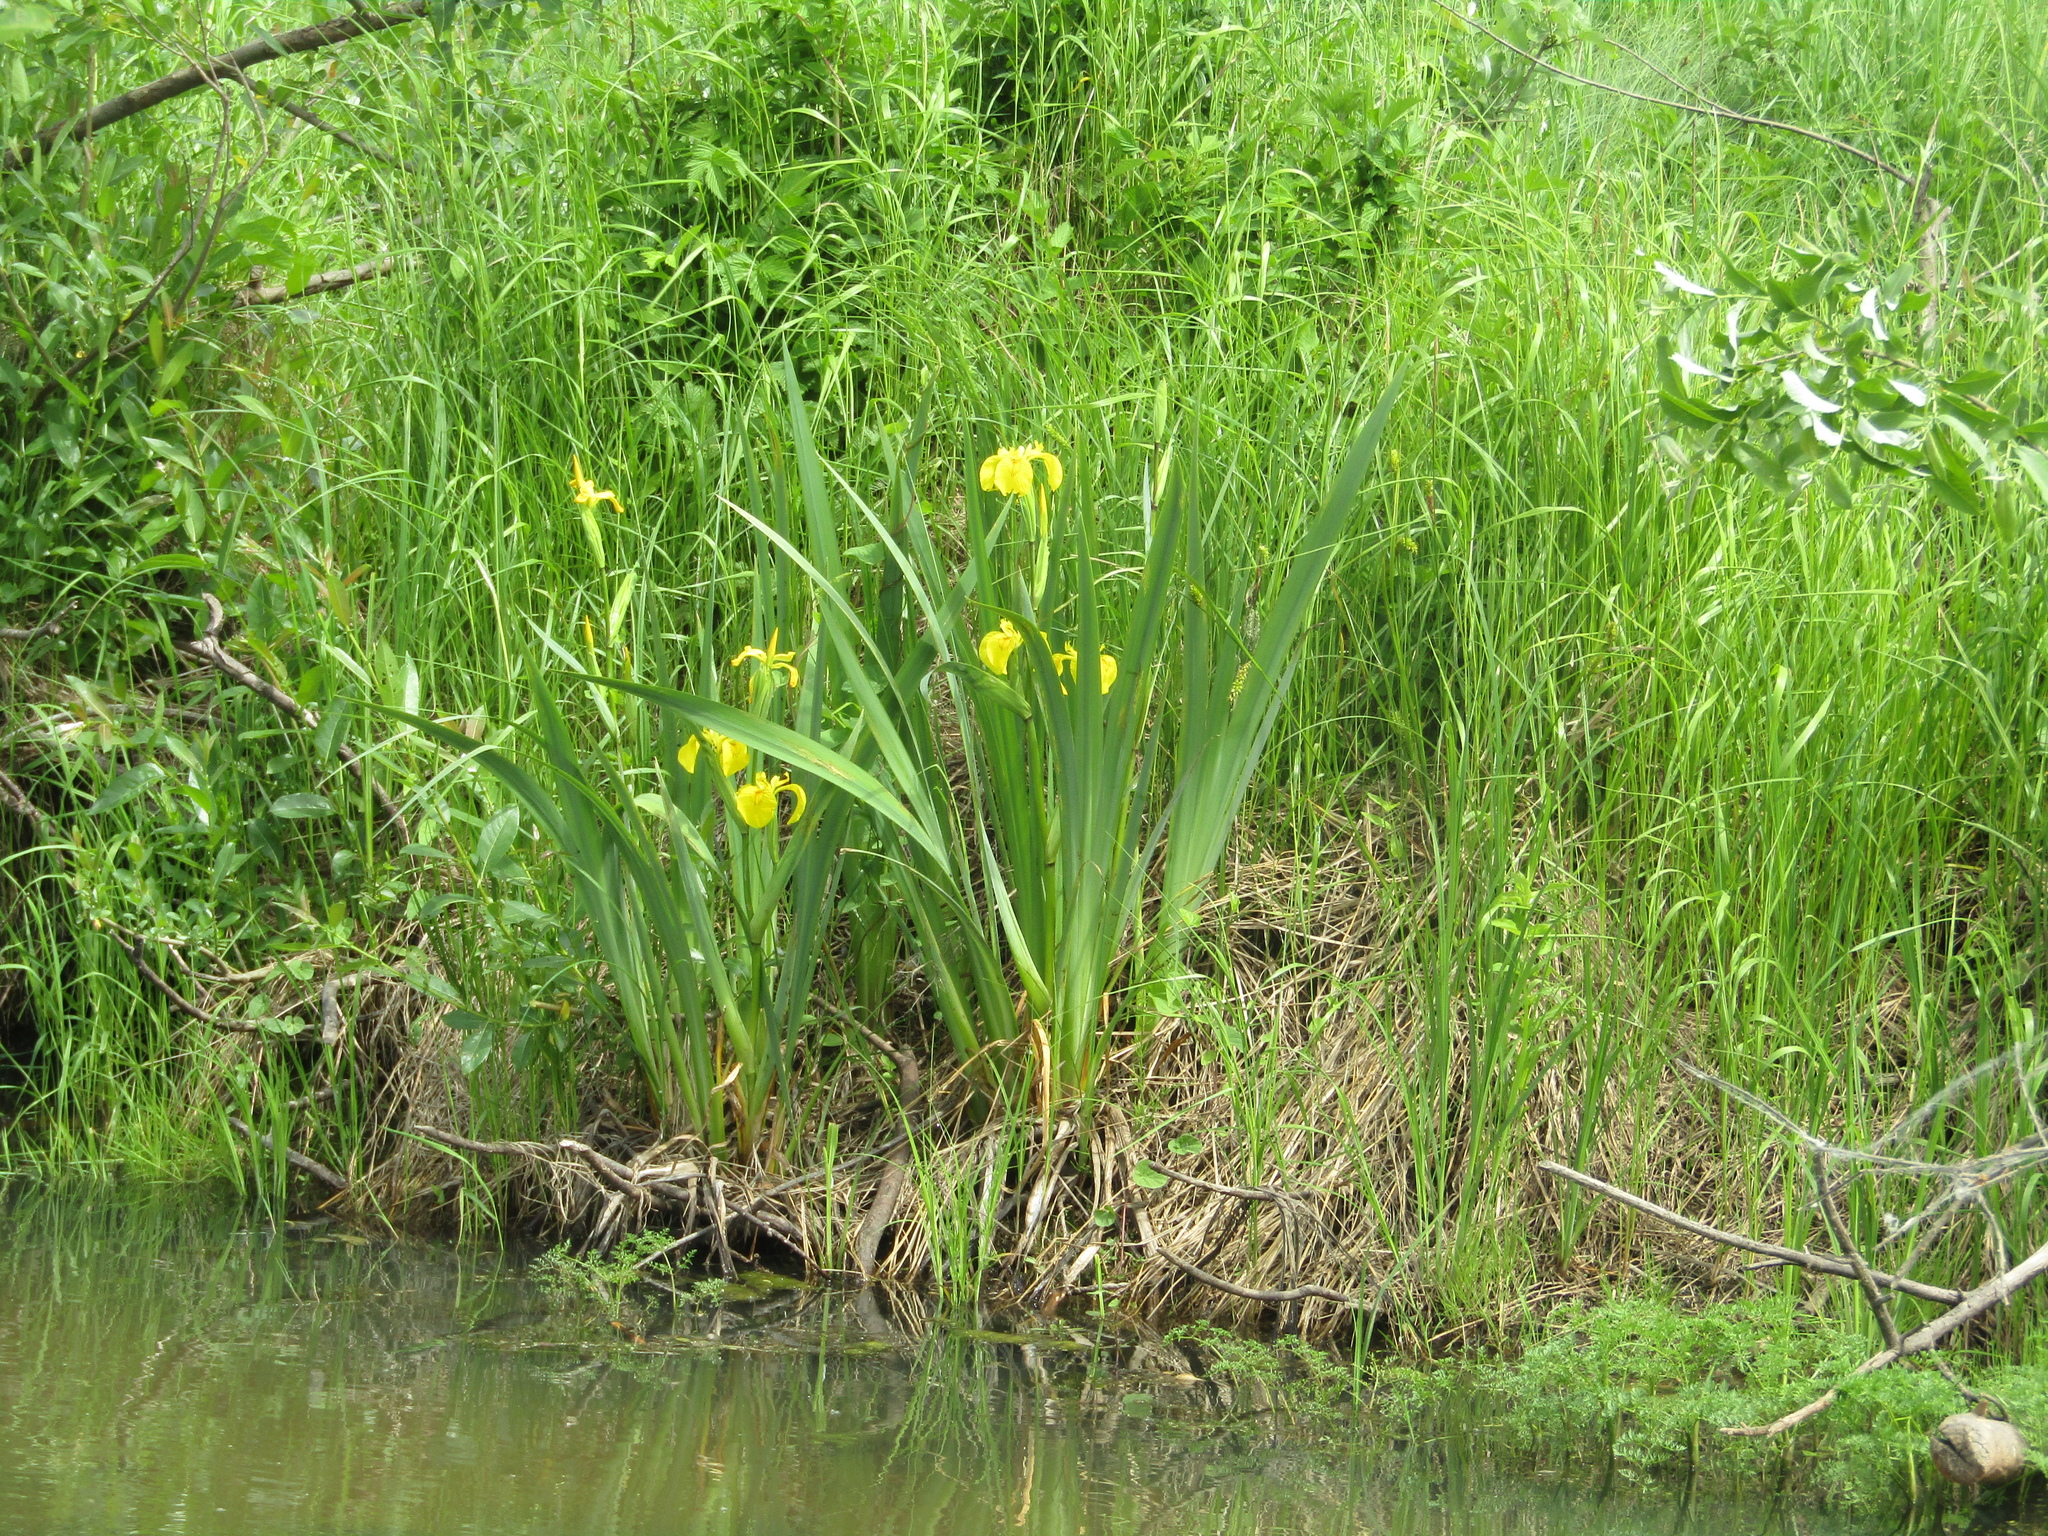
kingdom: Plantae
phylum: Tracheophyta
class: Liliopsida
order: Asparagales
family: Iridaceae
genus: Iris
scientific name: Iris pseudacorus
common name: Yellow flag
